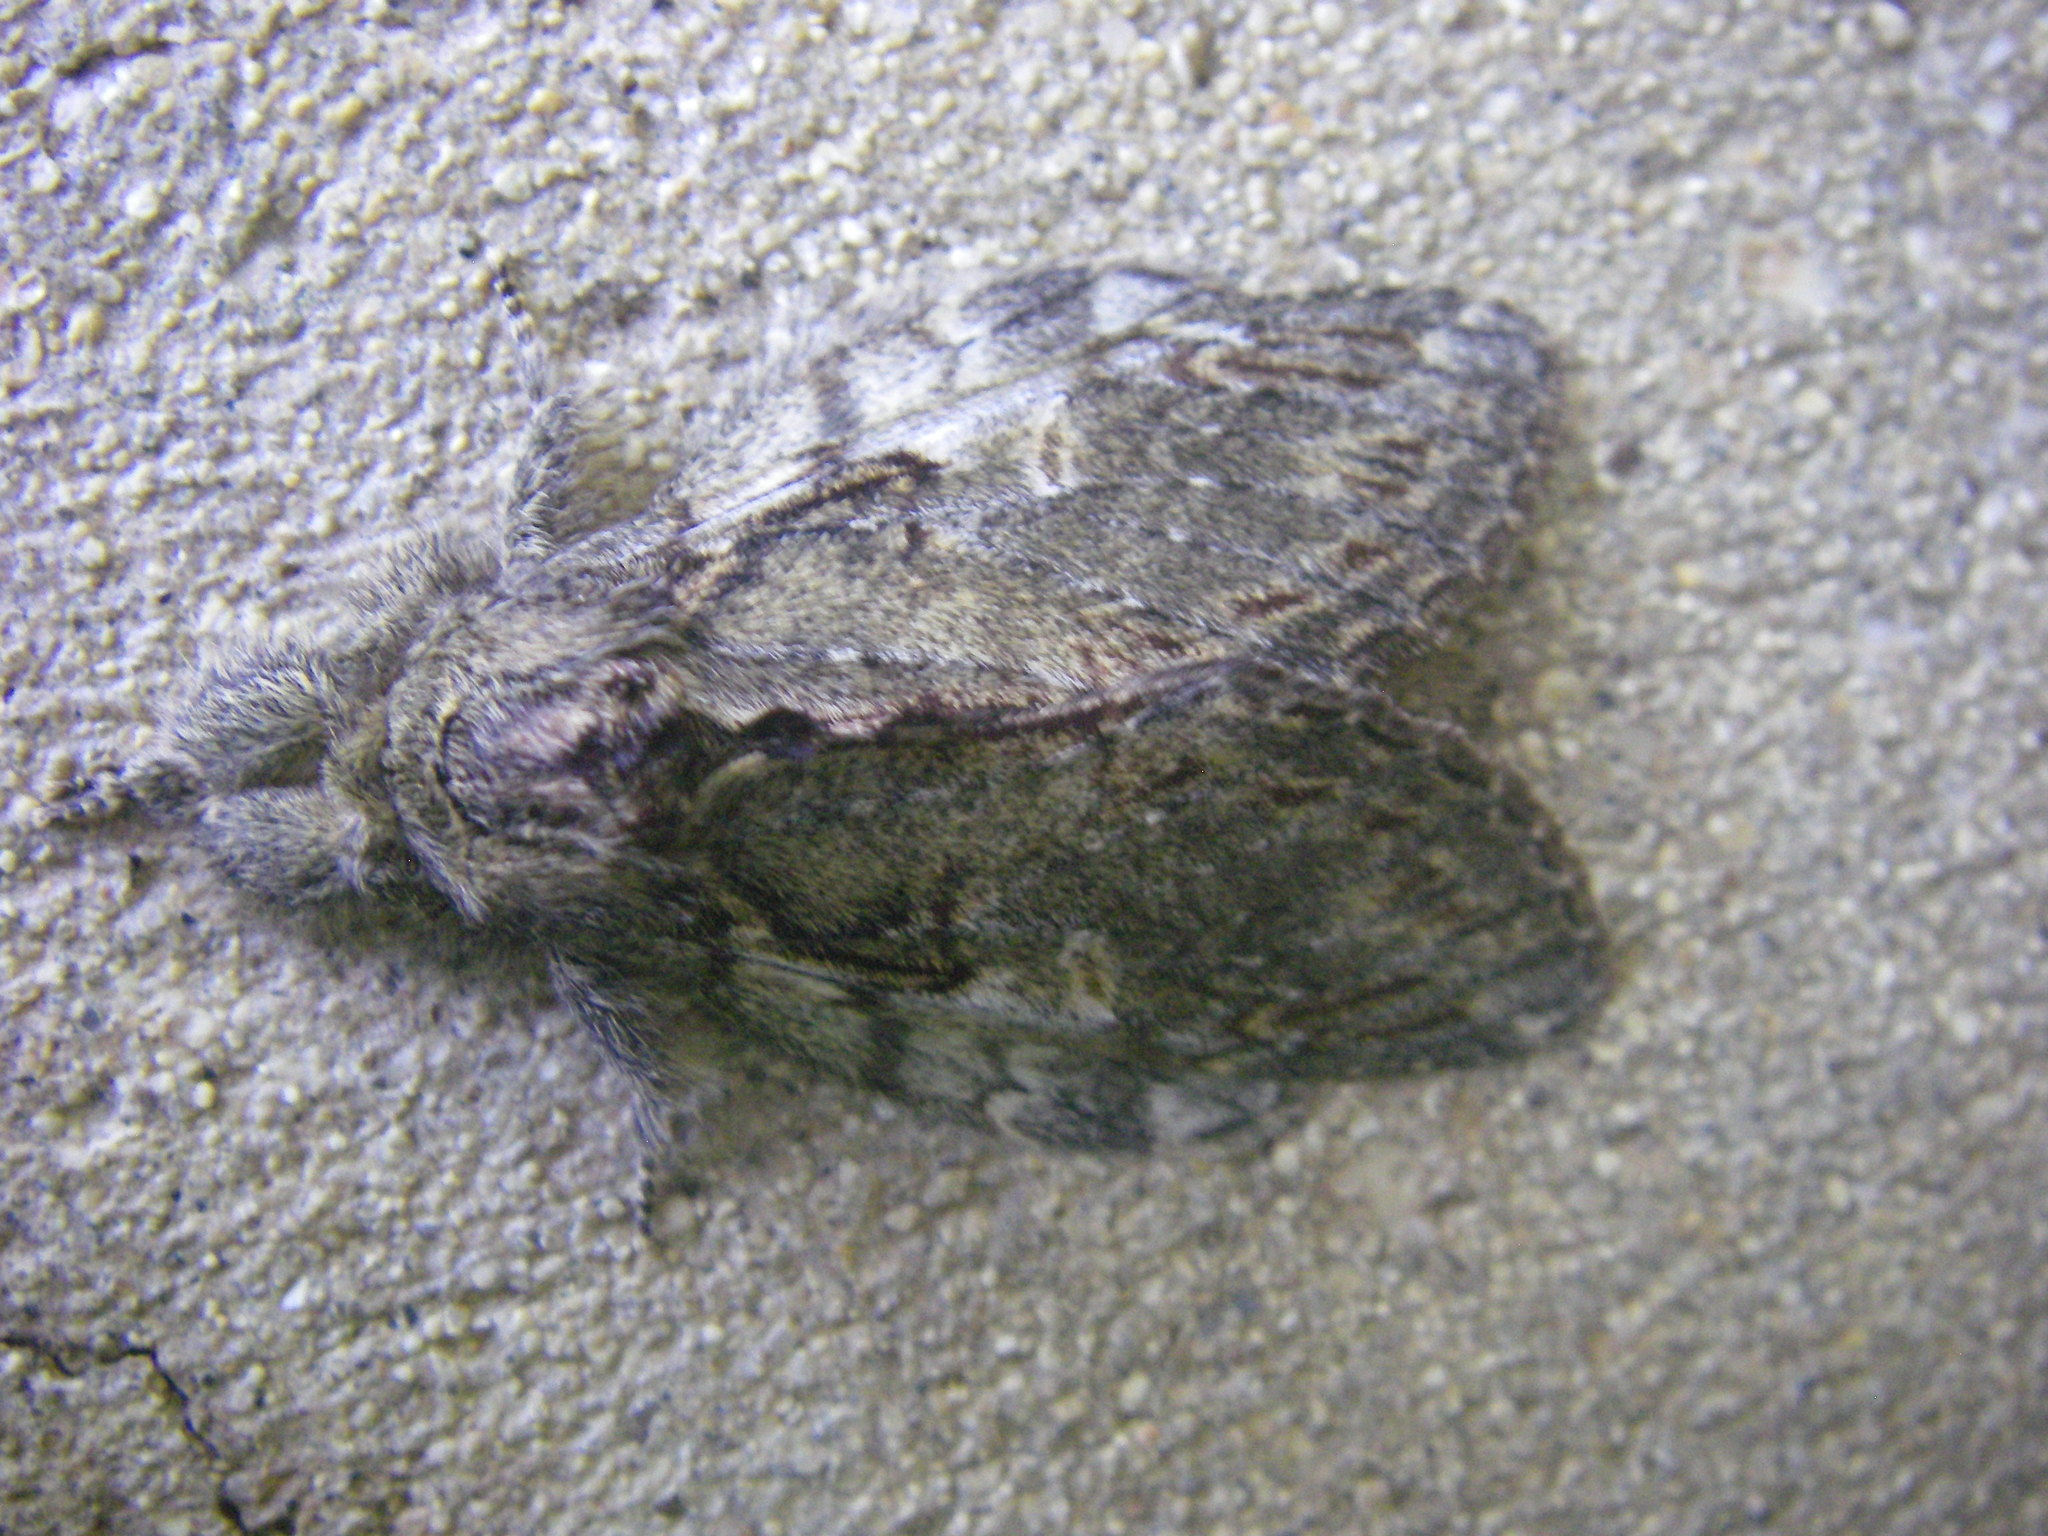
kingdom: Animalia
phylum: Arthropoda
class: Insecta
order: Lepidoptera
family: Notodontidae
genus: Peridea
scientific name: Peridea anceps
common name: Great prominent
